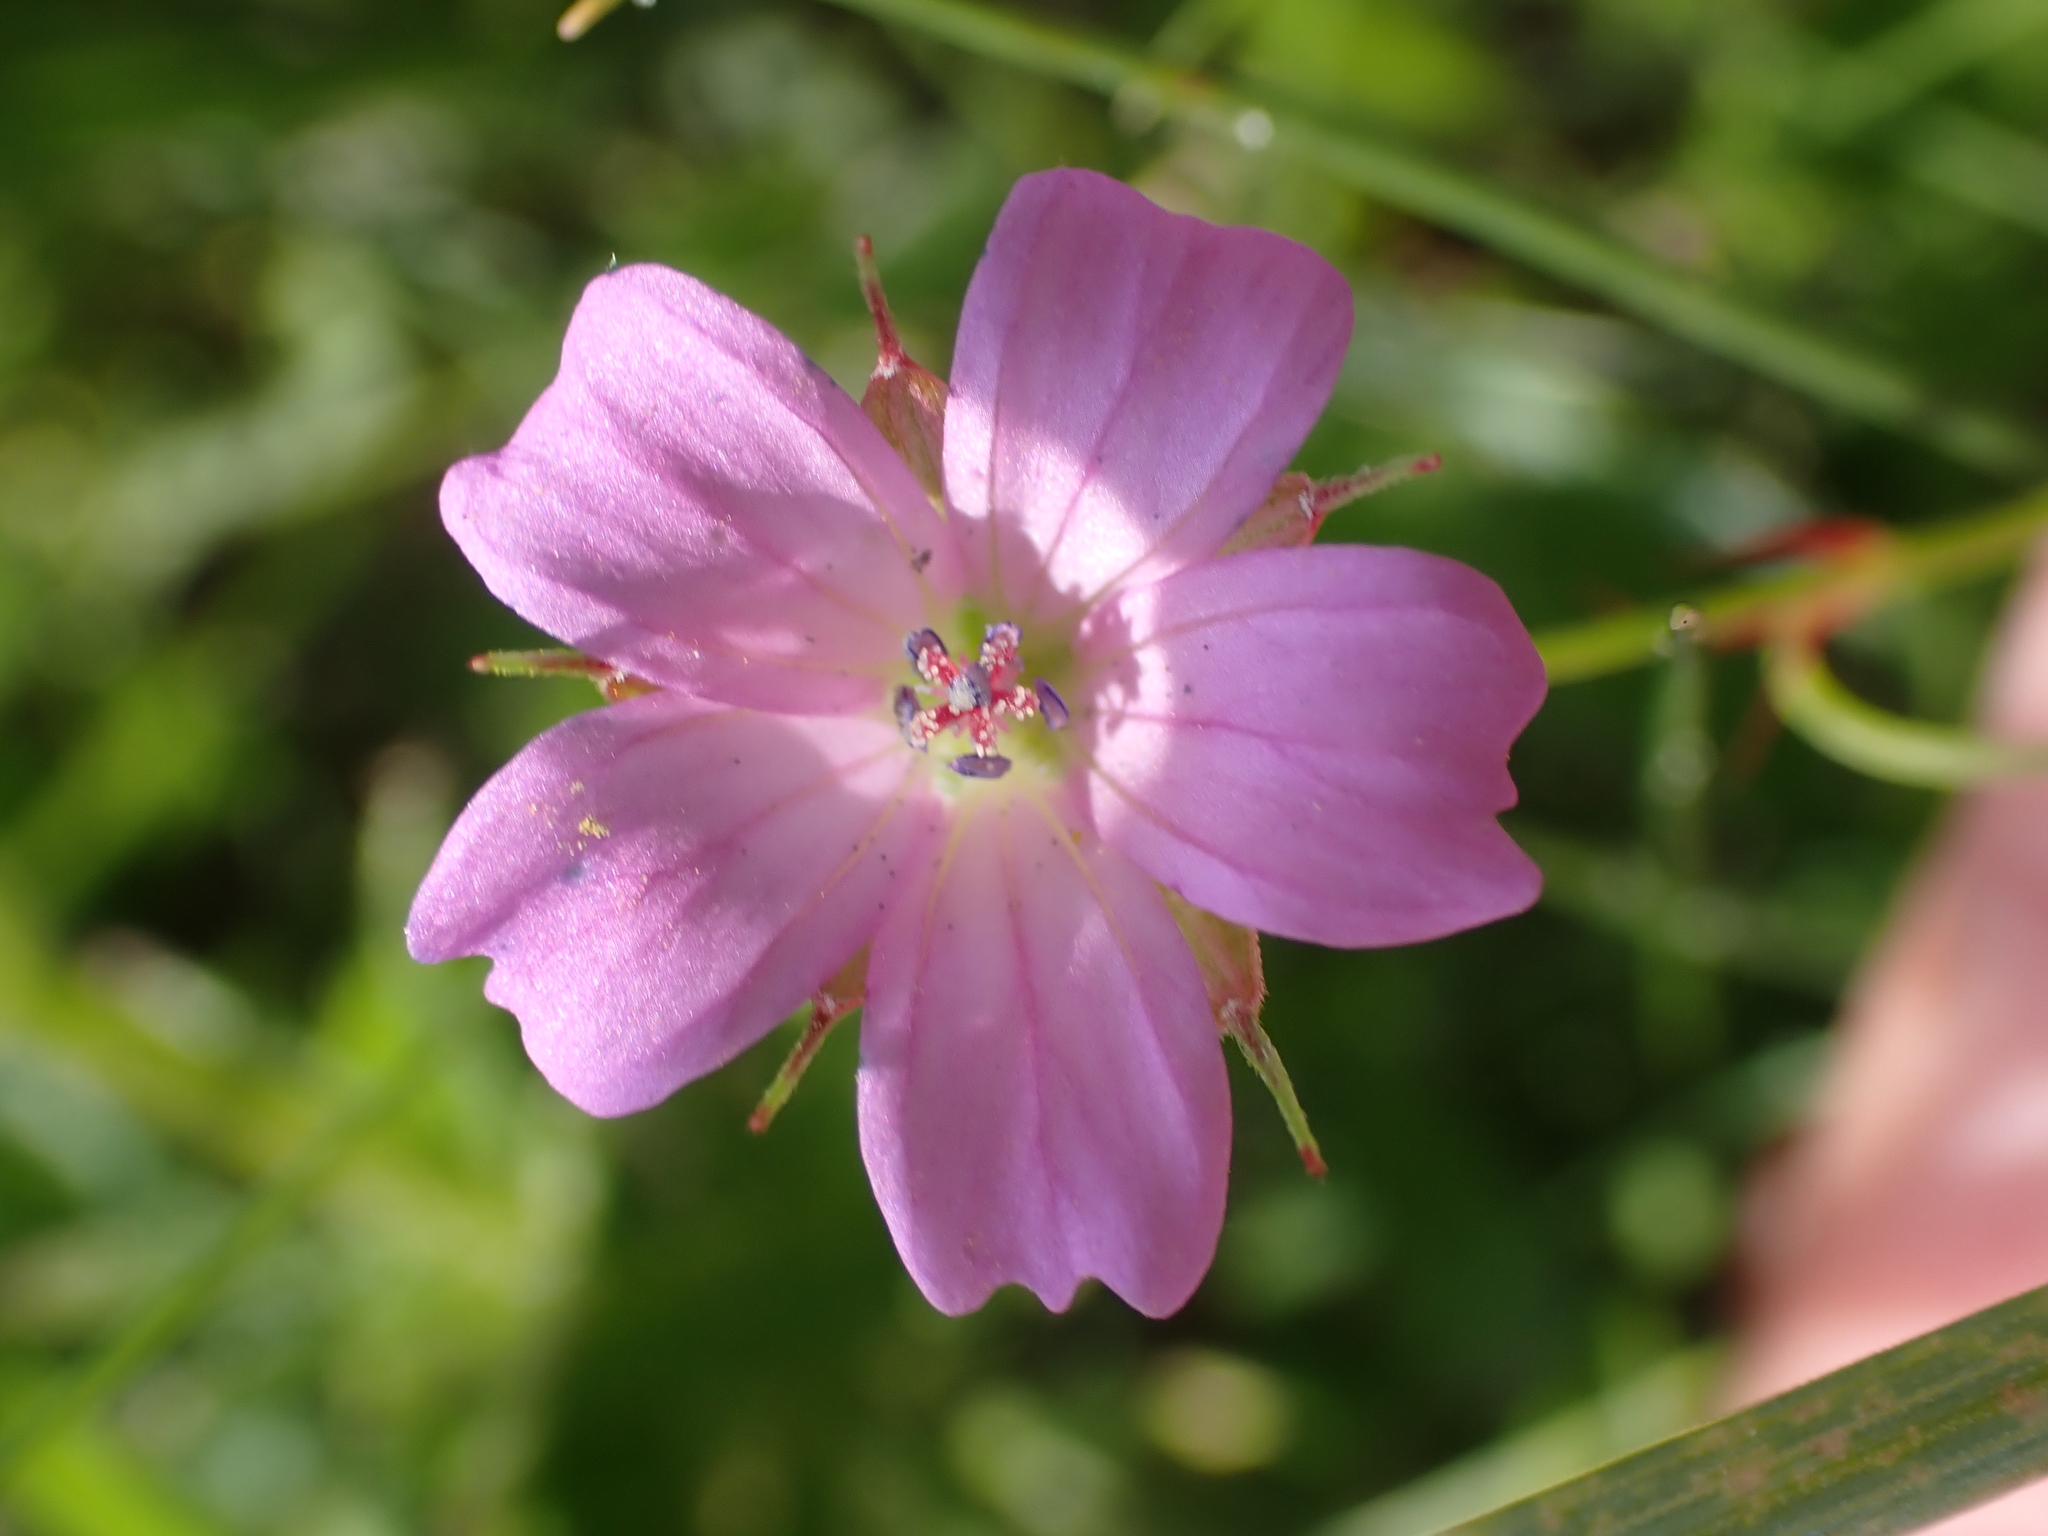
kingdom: Plantae
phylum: Tracheophyta
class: Magnoliopsida
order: Geraniales
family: Geraniaceae
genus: Geranium
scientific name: Geranium columbinum
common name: Long-stalked crane's-bill
